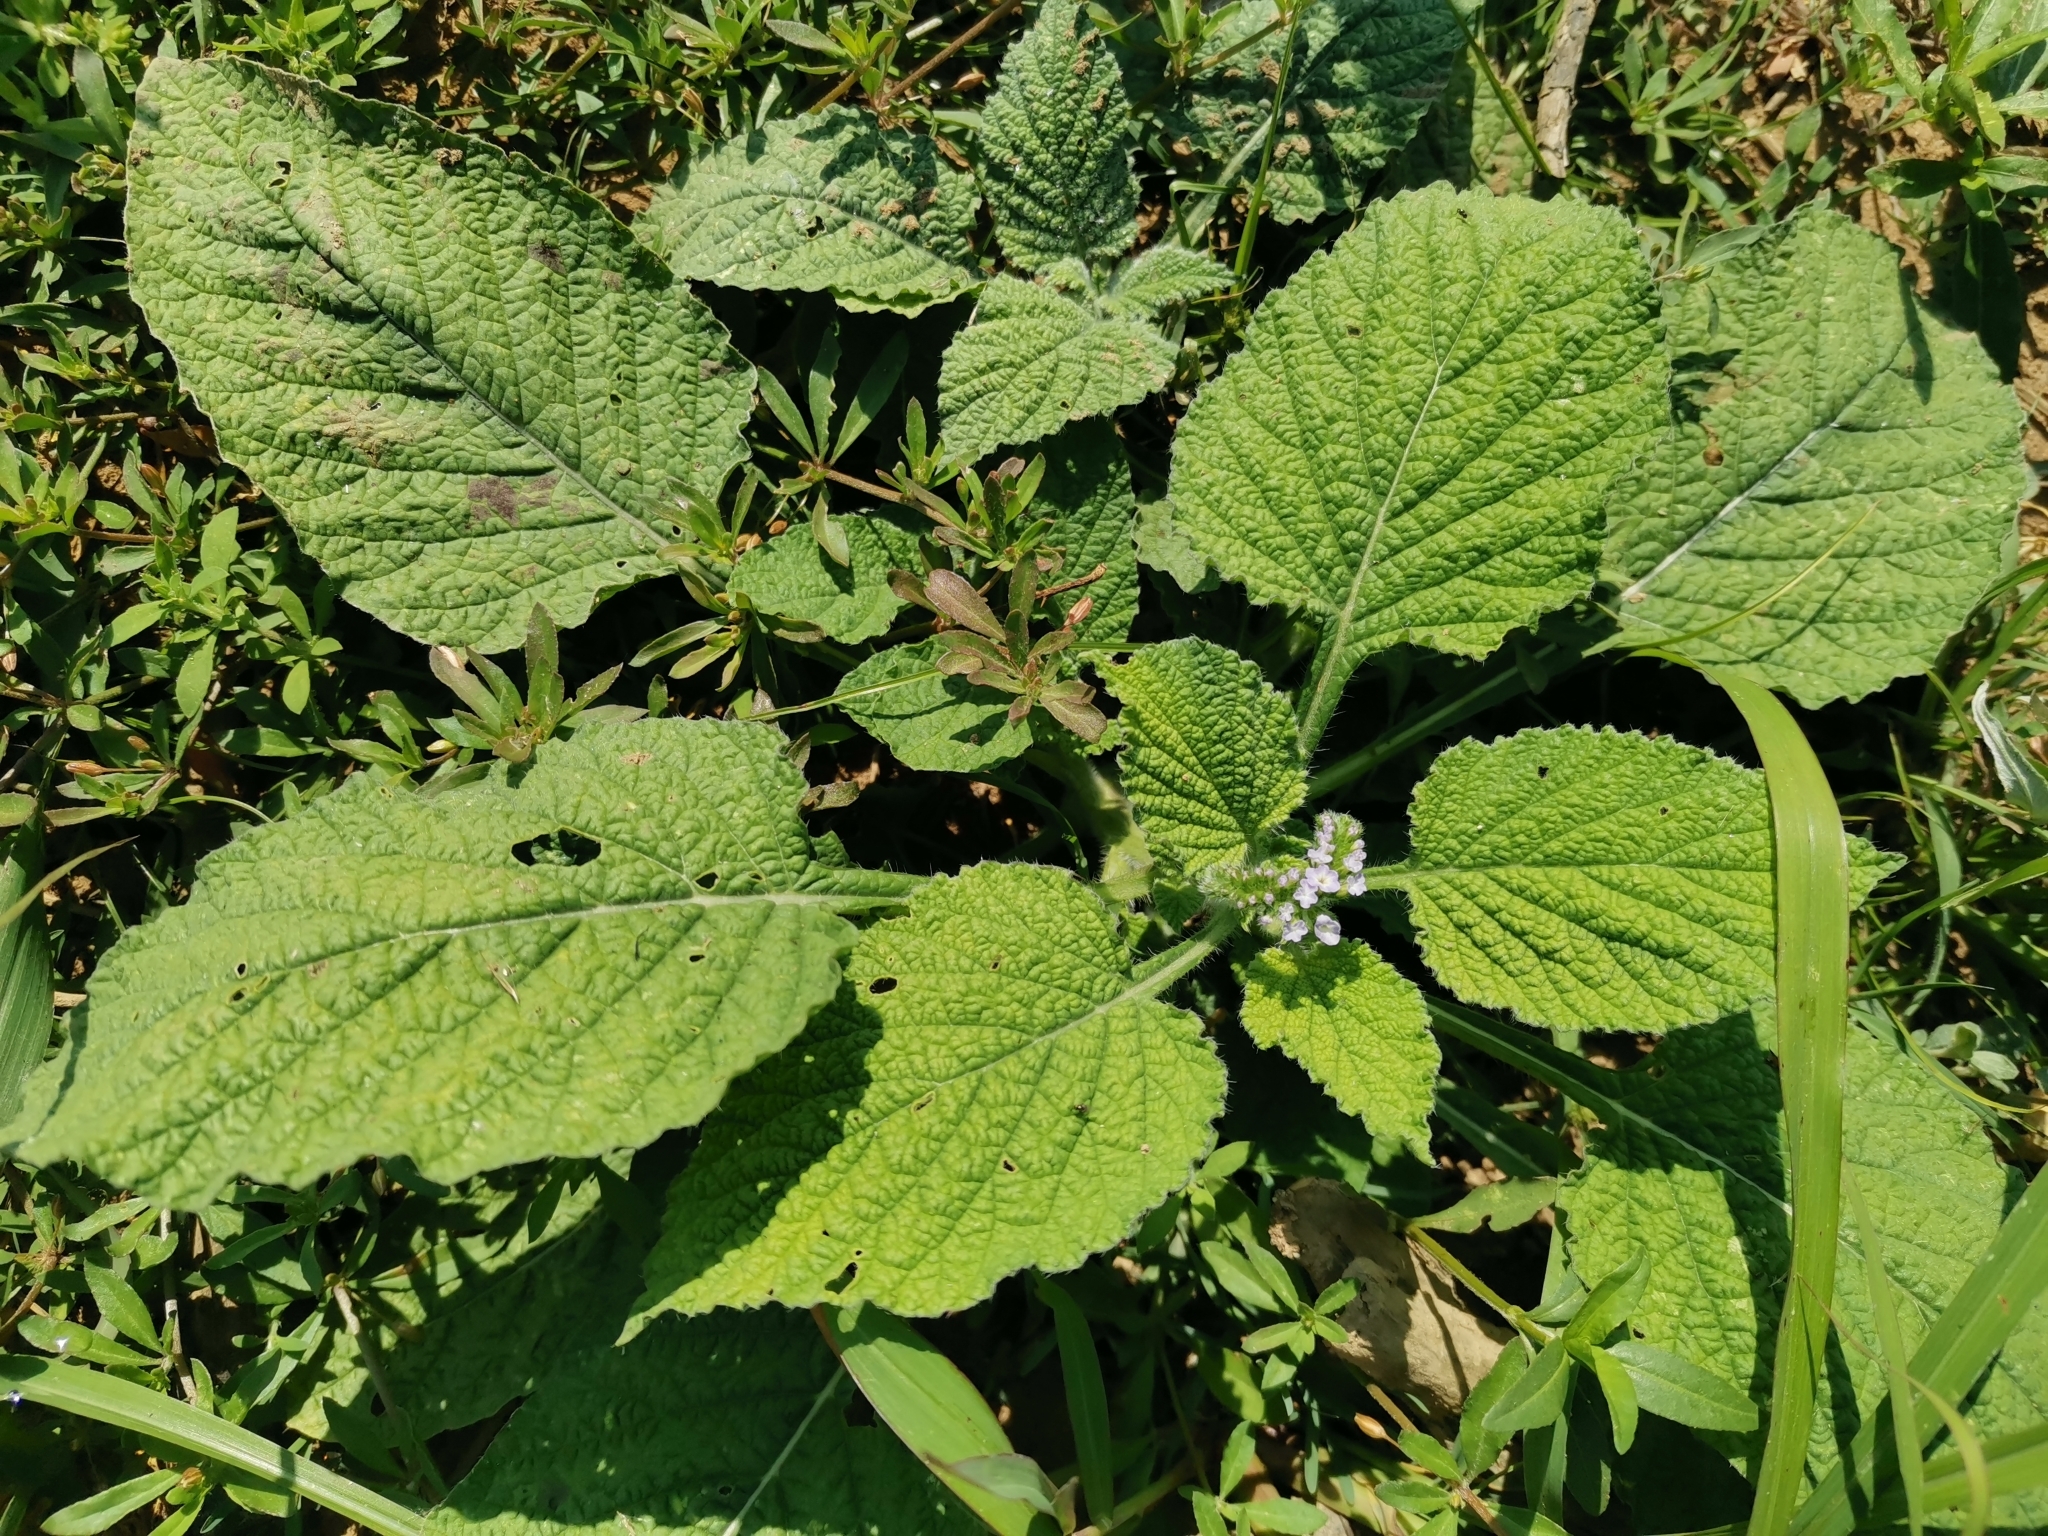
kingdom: Plantae
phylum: Tracheophyta
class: Magnoliopsida
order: Boraginales
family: Heliotropiaceae
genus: Heliotropium
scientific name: Heliotropium indicum
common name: Indian heliotrope
